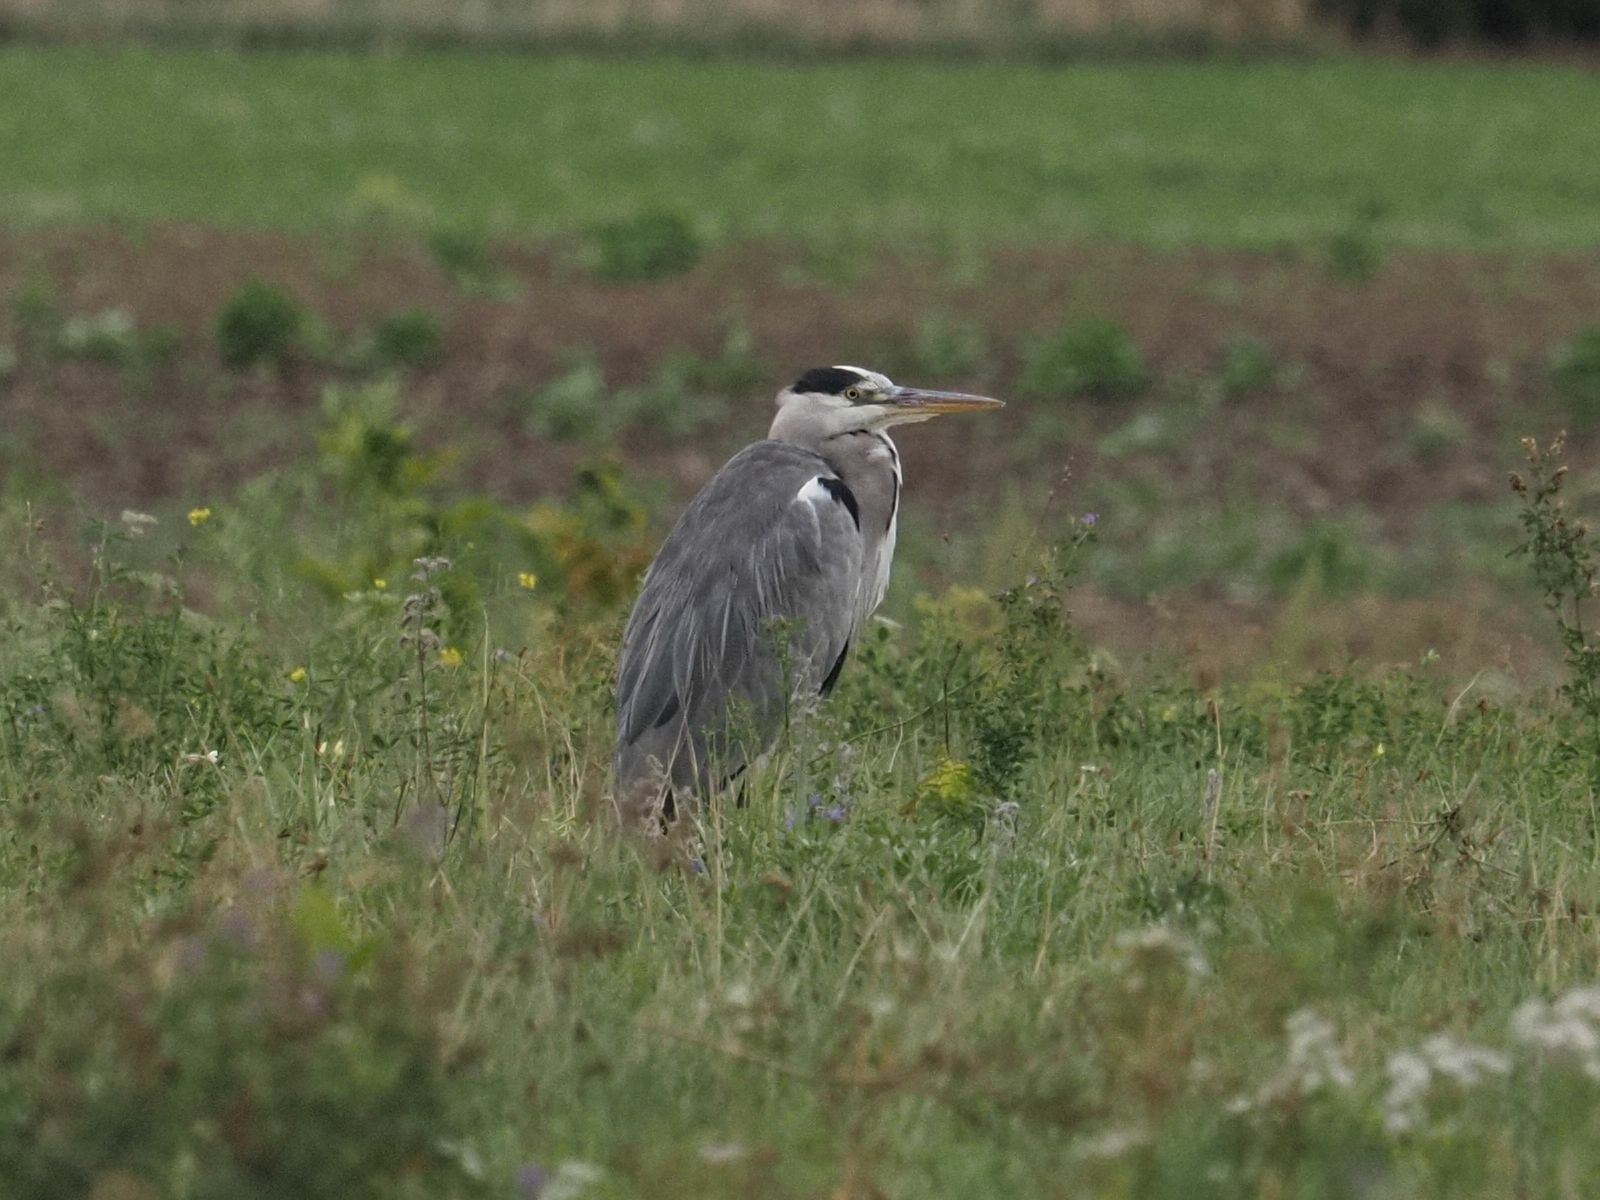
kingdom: Animalia
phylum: Chordata
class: Aves
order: Pelecaniformes
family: Ardeidae
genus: Ardea
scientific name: Ardea cinerea
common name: Grey heron
